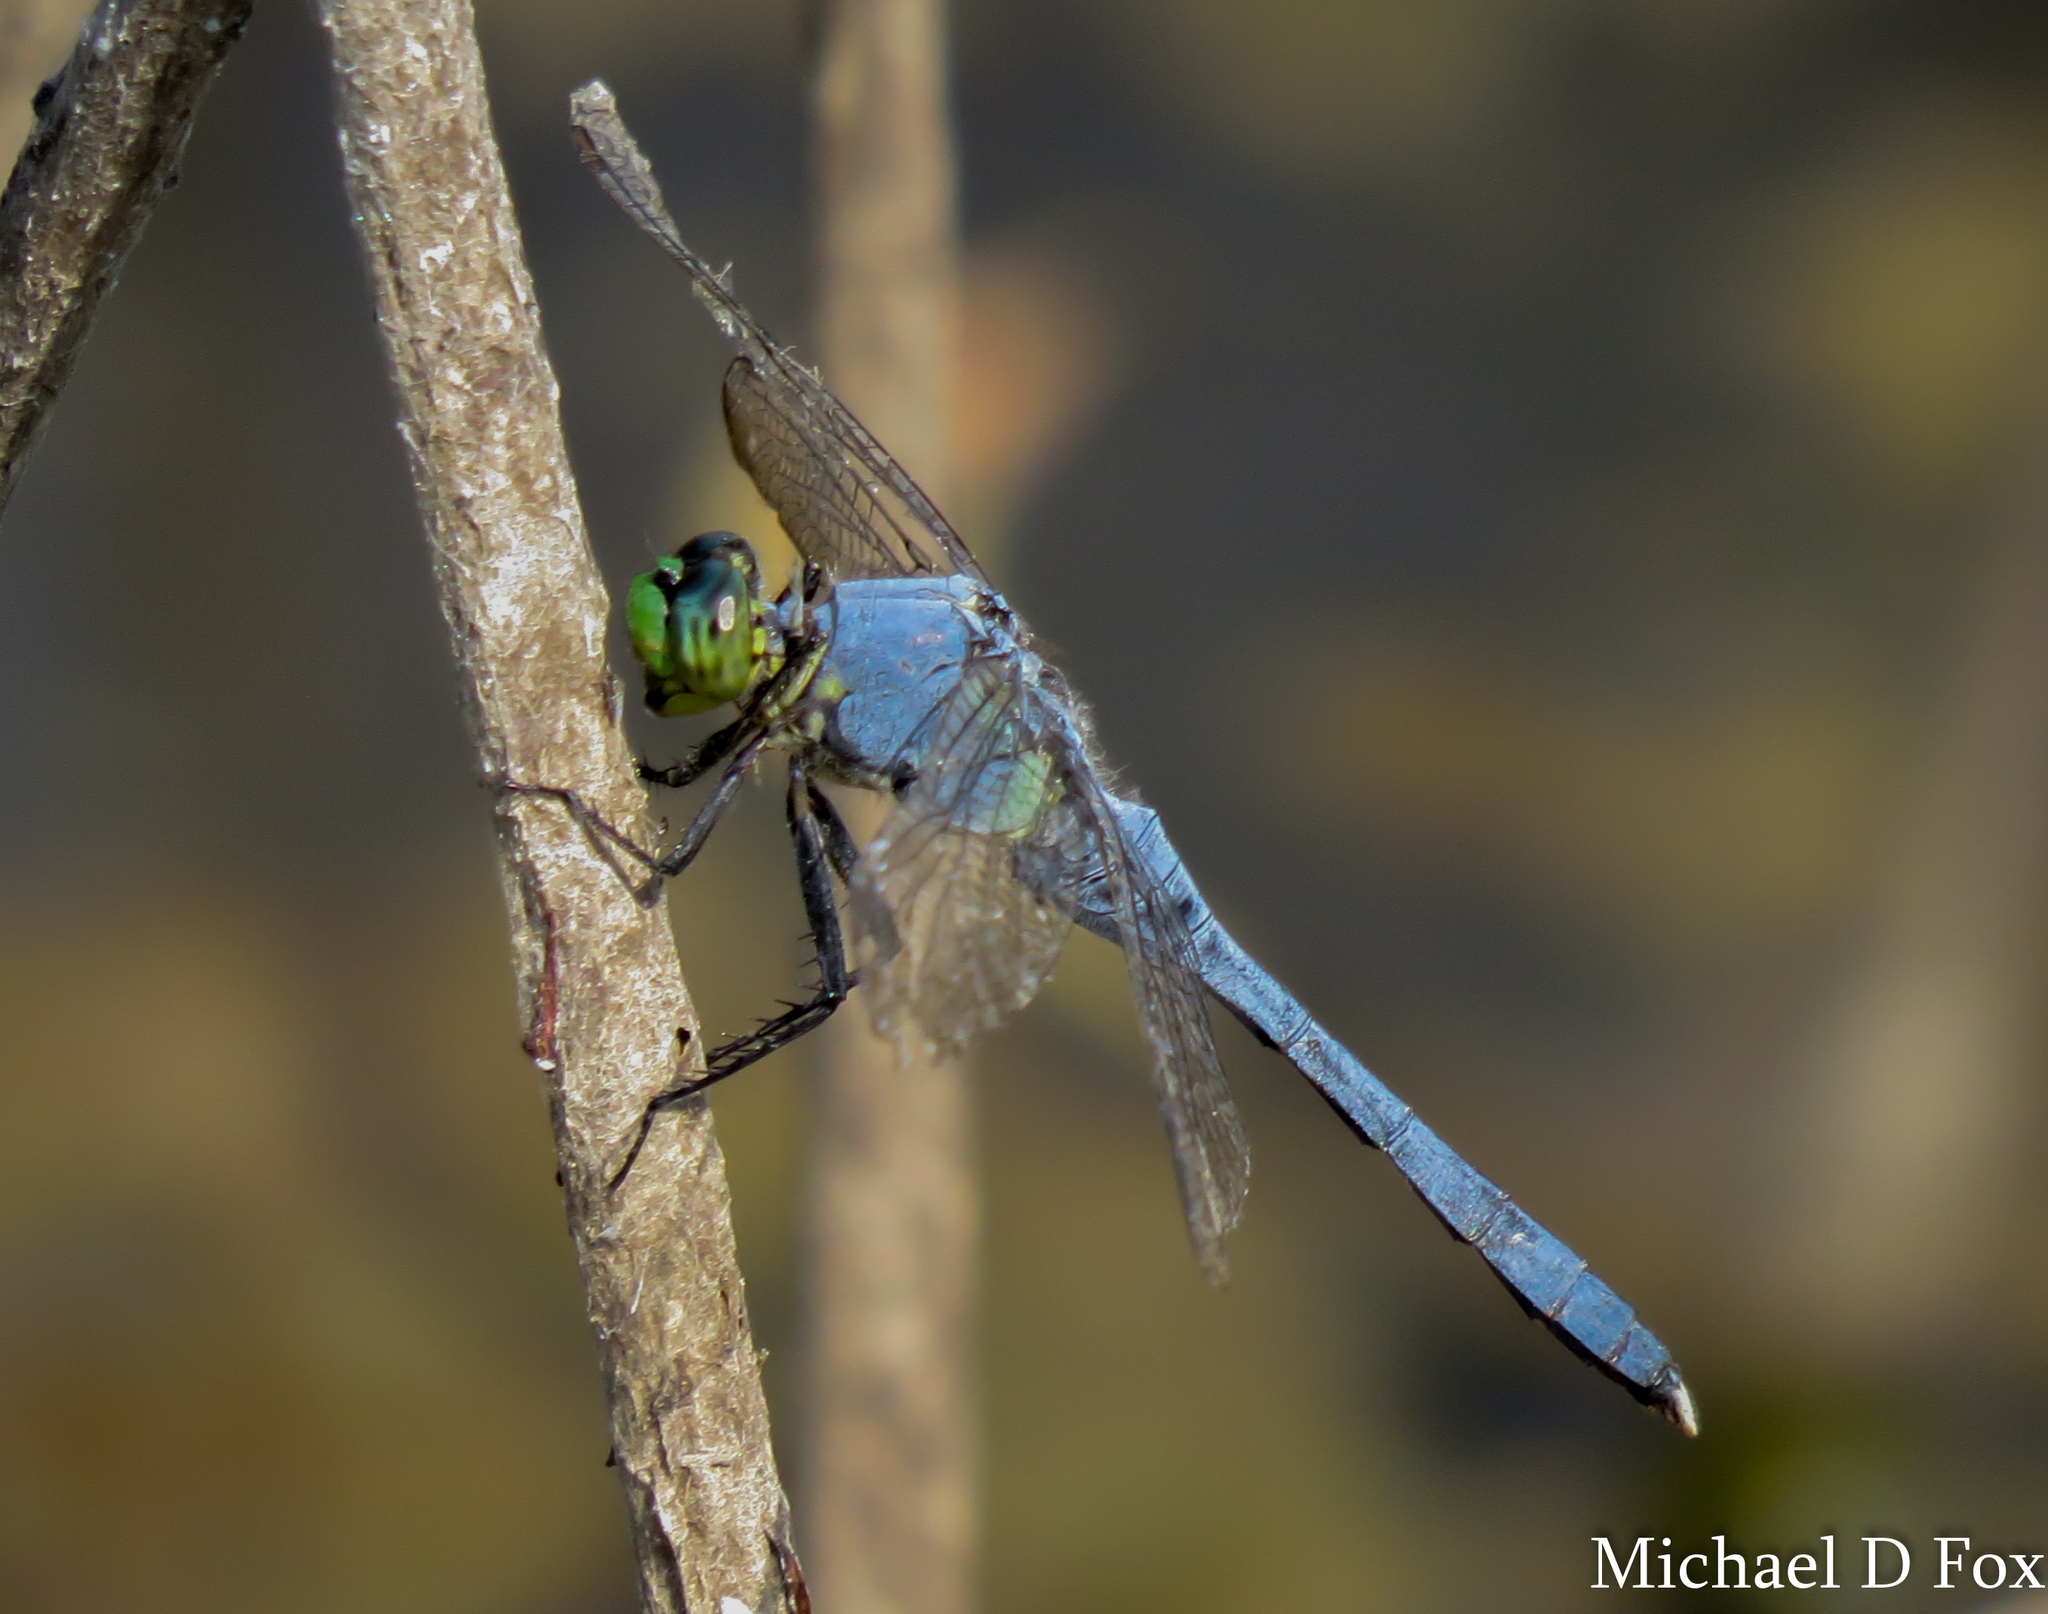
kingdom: Animalia
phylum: Arthropoda
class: Insecta
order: Odonata
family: Libellulidae
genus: Erythemis
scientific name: Erythemis simplicicollis
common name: Eastern pondhawk
